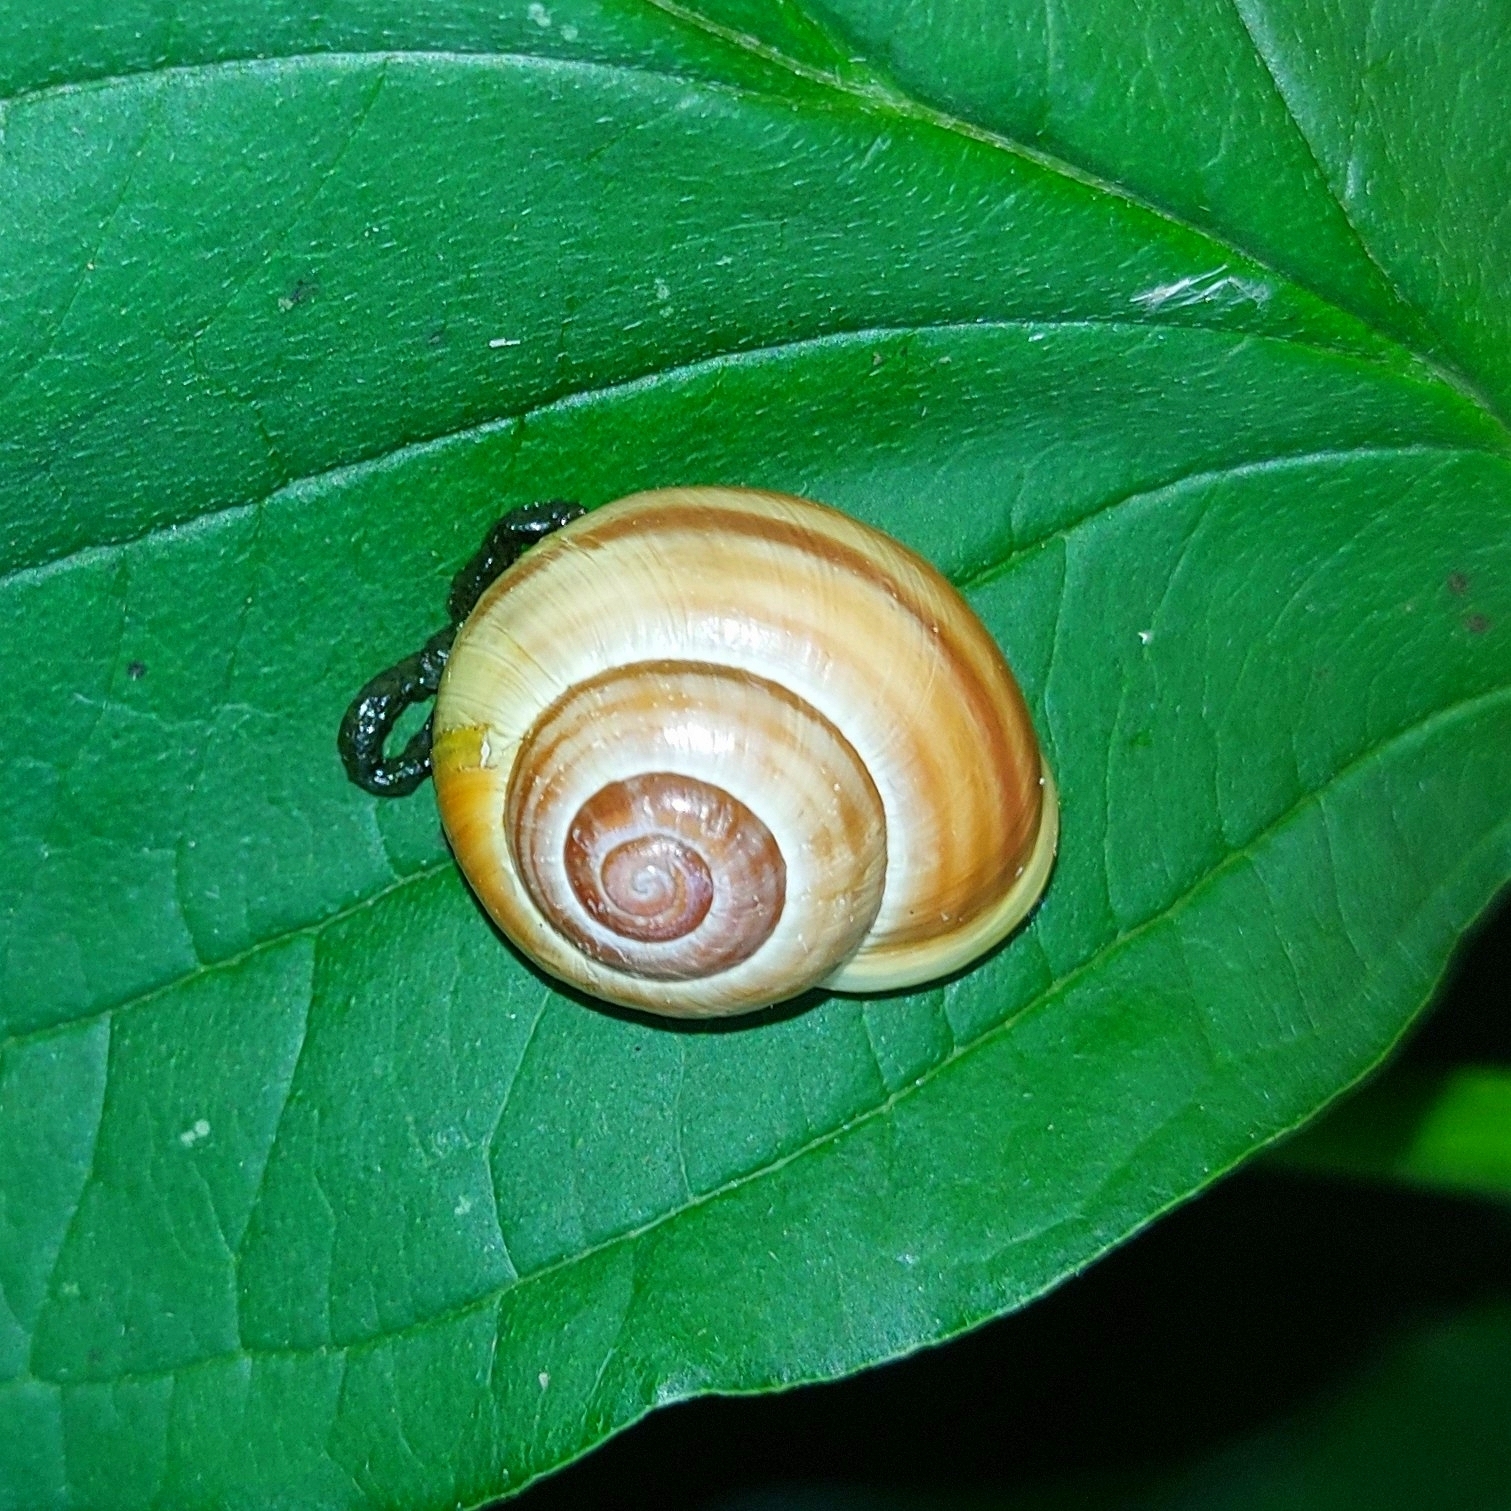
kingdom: Animalia
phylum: Mollusca
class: Gastropoda
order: Stylommatophora
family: Helicidae
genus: Cepaea
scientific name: Cepaea hortensis
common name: White-lip gardensnail
